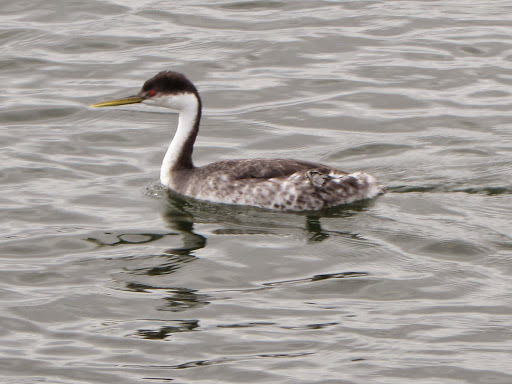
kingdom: Animalia
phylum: Chordata
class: Aves
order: Podicipediformes
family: Podicipedidae
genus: Aechmophorus
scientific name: Aechmophorus occidentalis
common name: Western grebe
